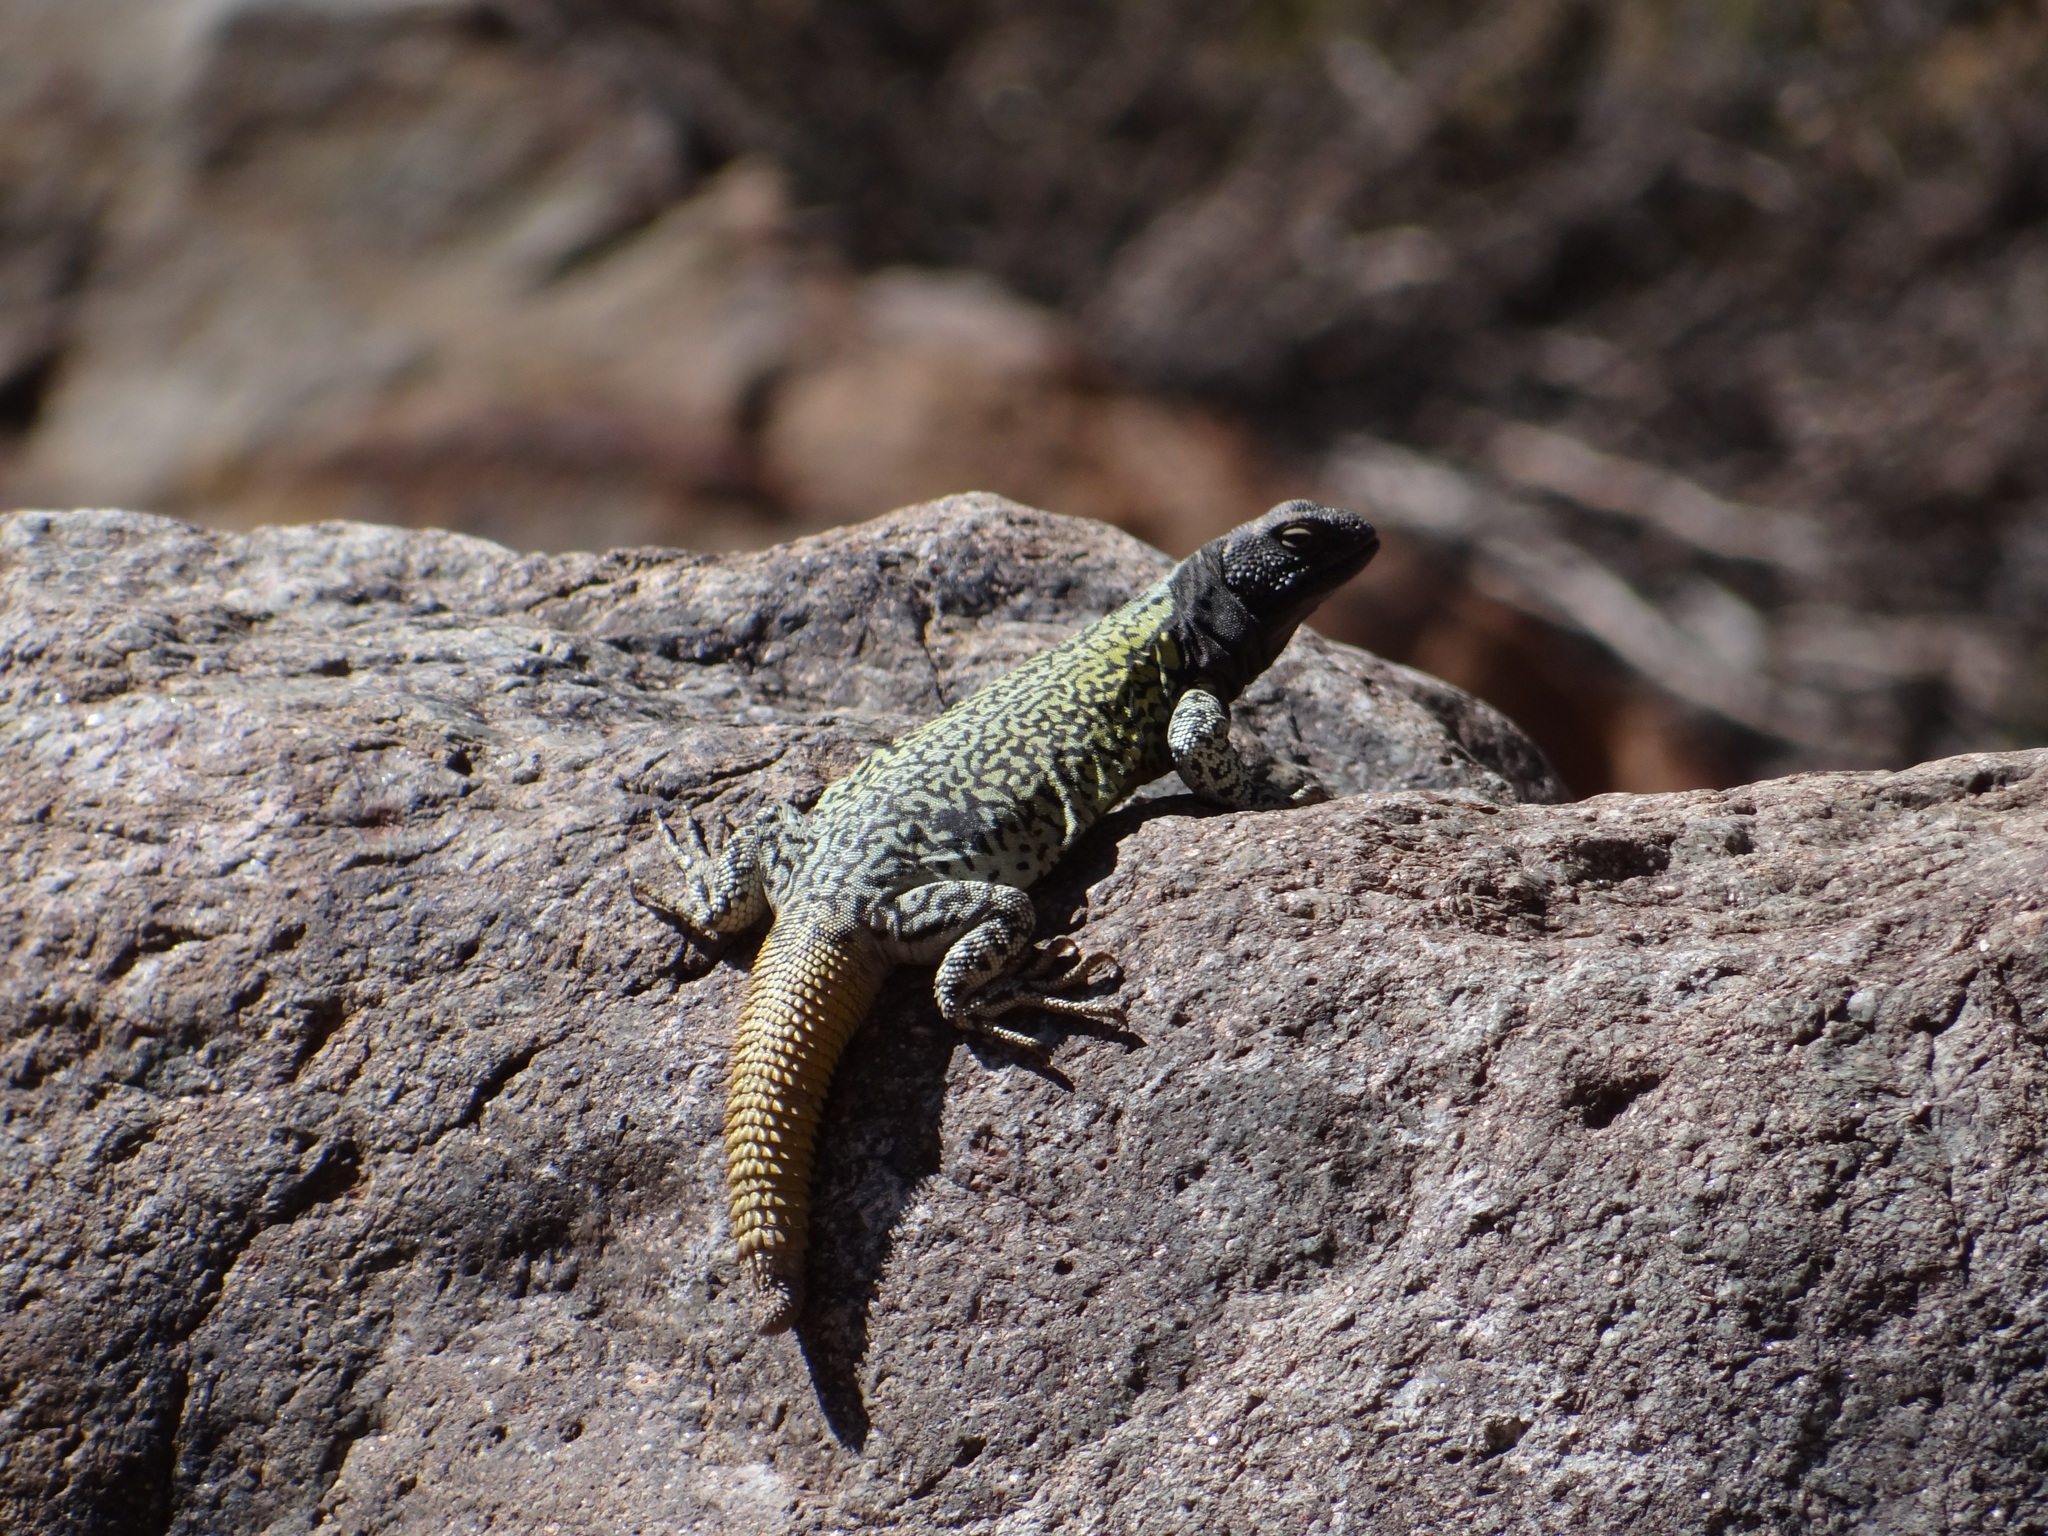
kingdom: Animalia
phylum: Chordata
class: Squamata
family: Liolaemidae
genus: Phymaturus
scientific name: Phymaturus palluma
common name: High mountain lizard
